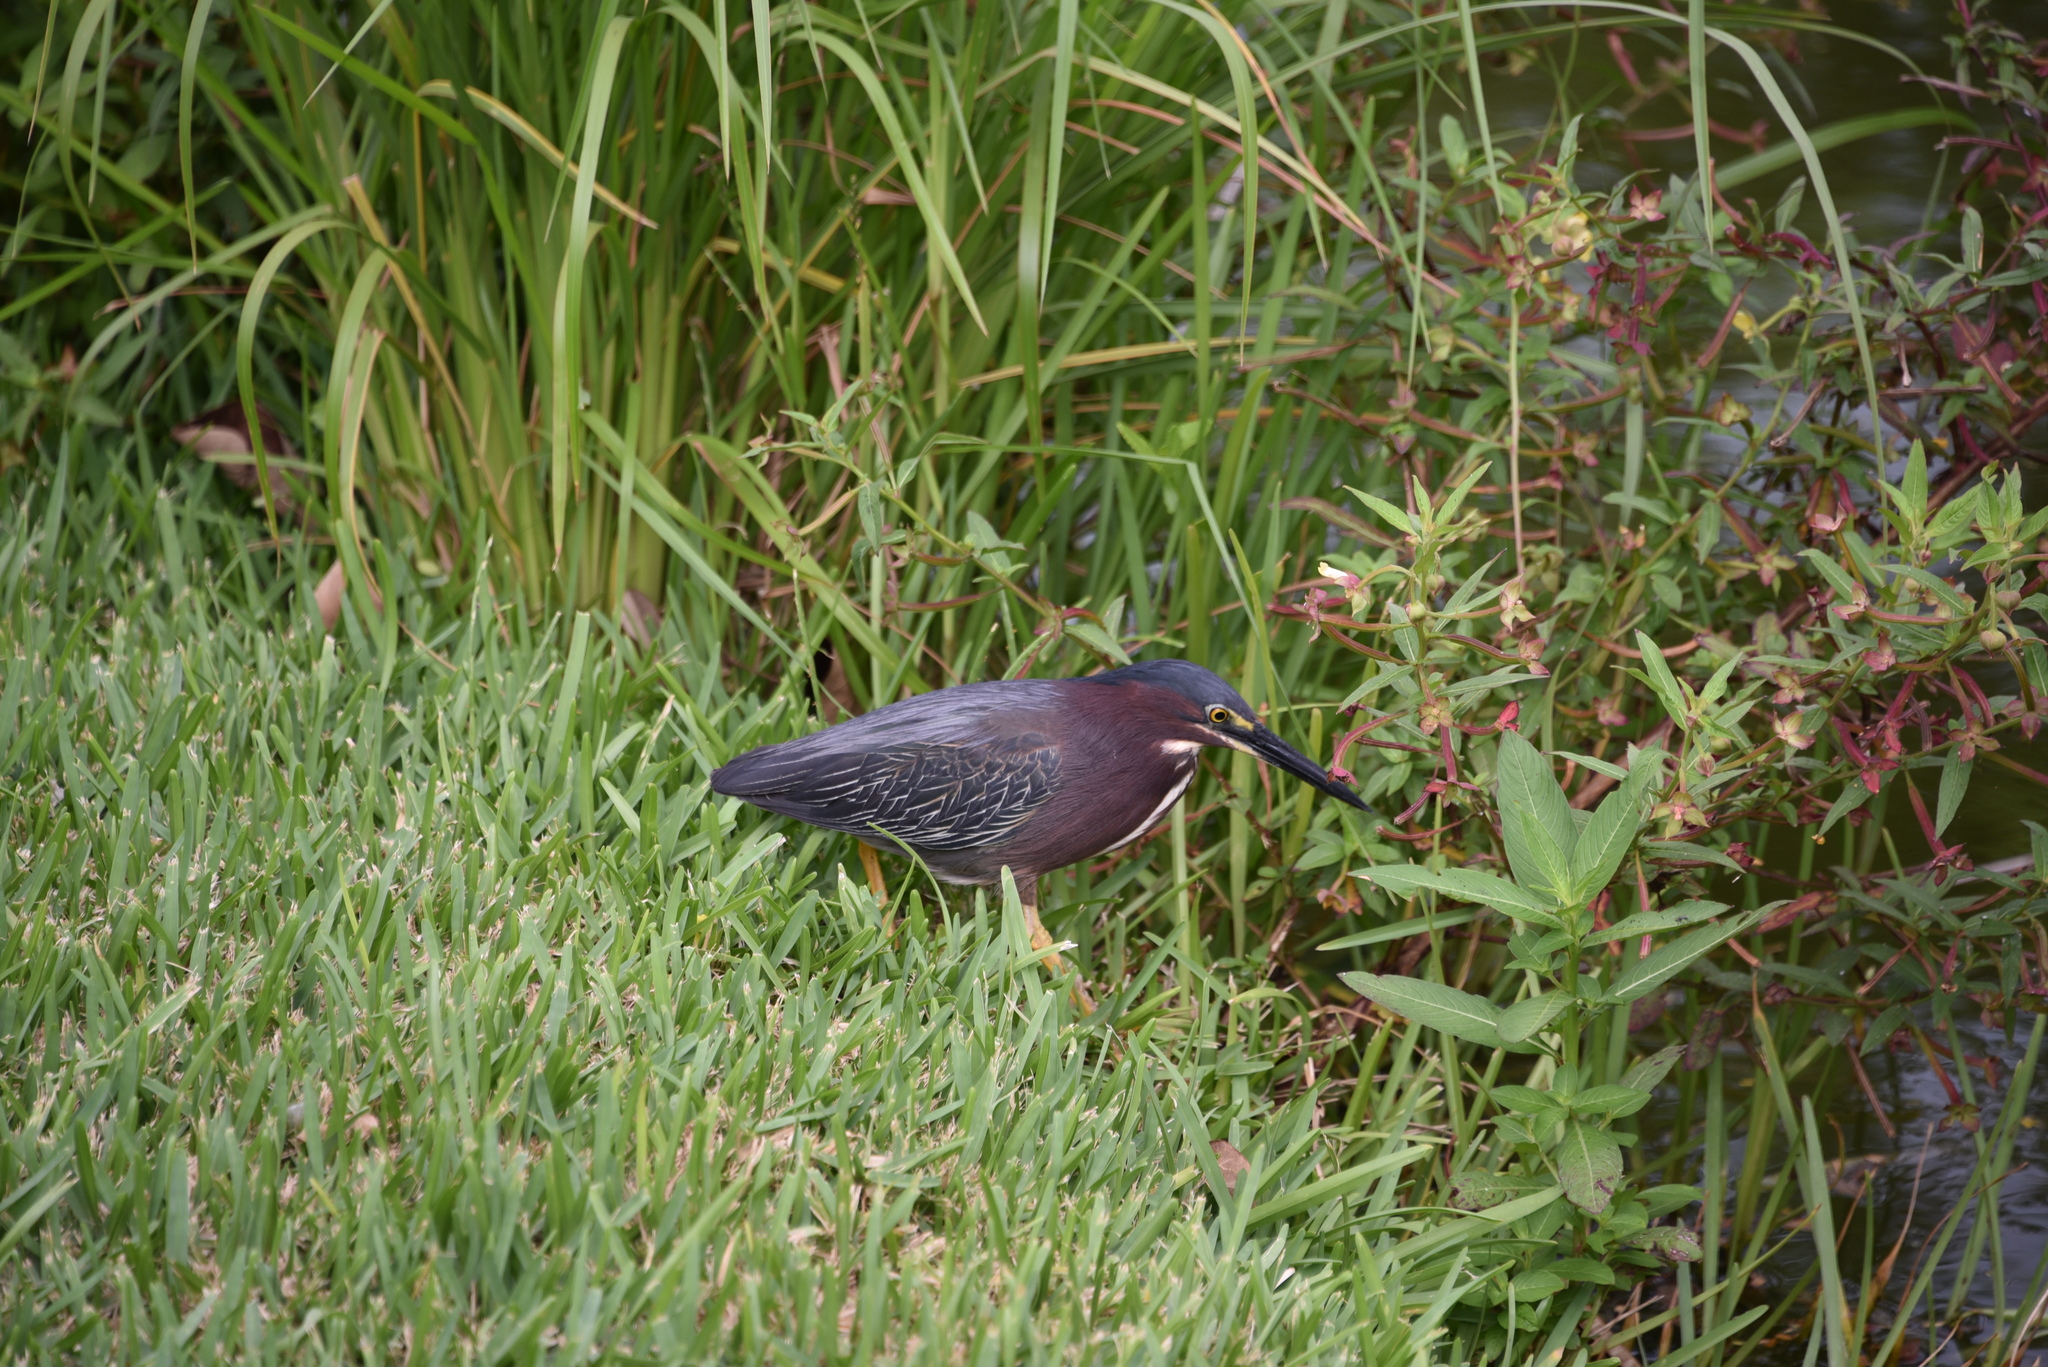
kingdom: Animalia
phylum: Chordata
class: Aves
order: Pelecaniformes
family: Ardeidae
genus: Butorides
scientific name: Butorides virescens
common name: Green heron
